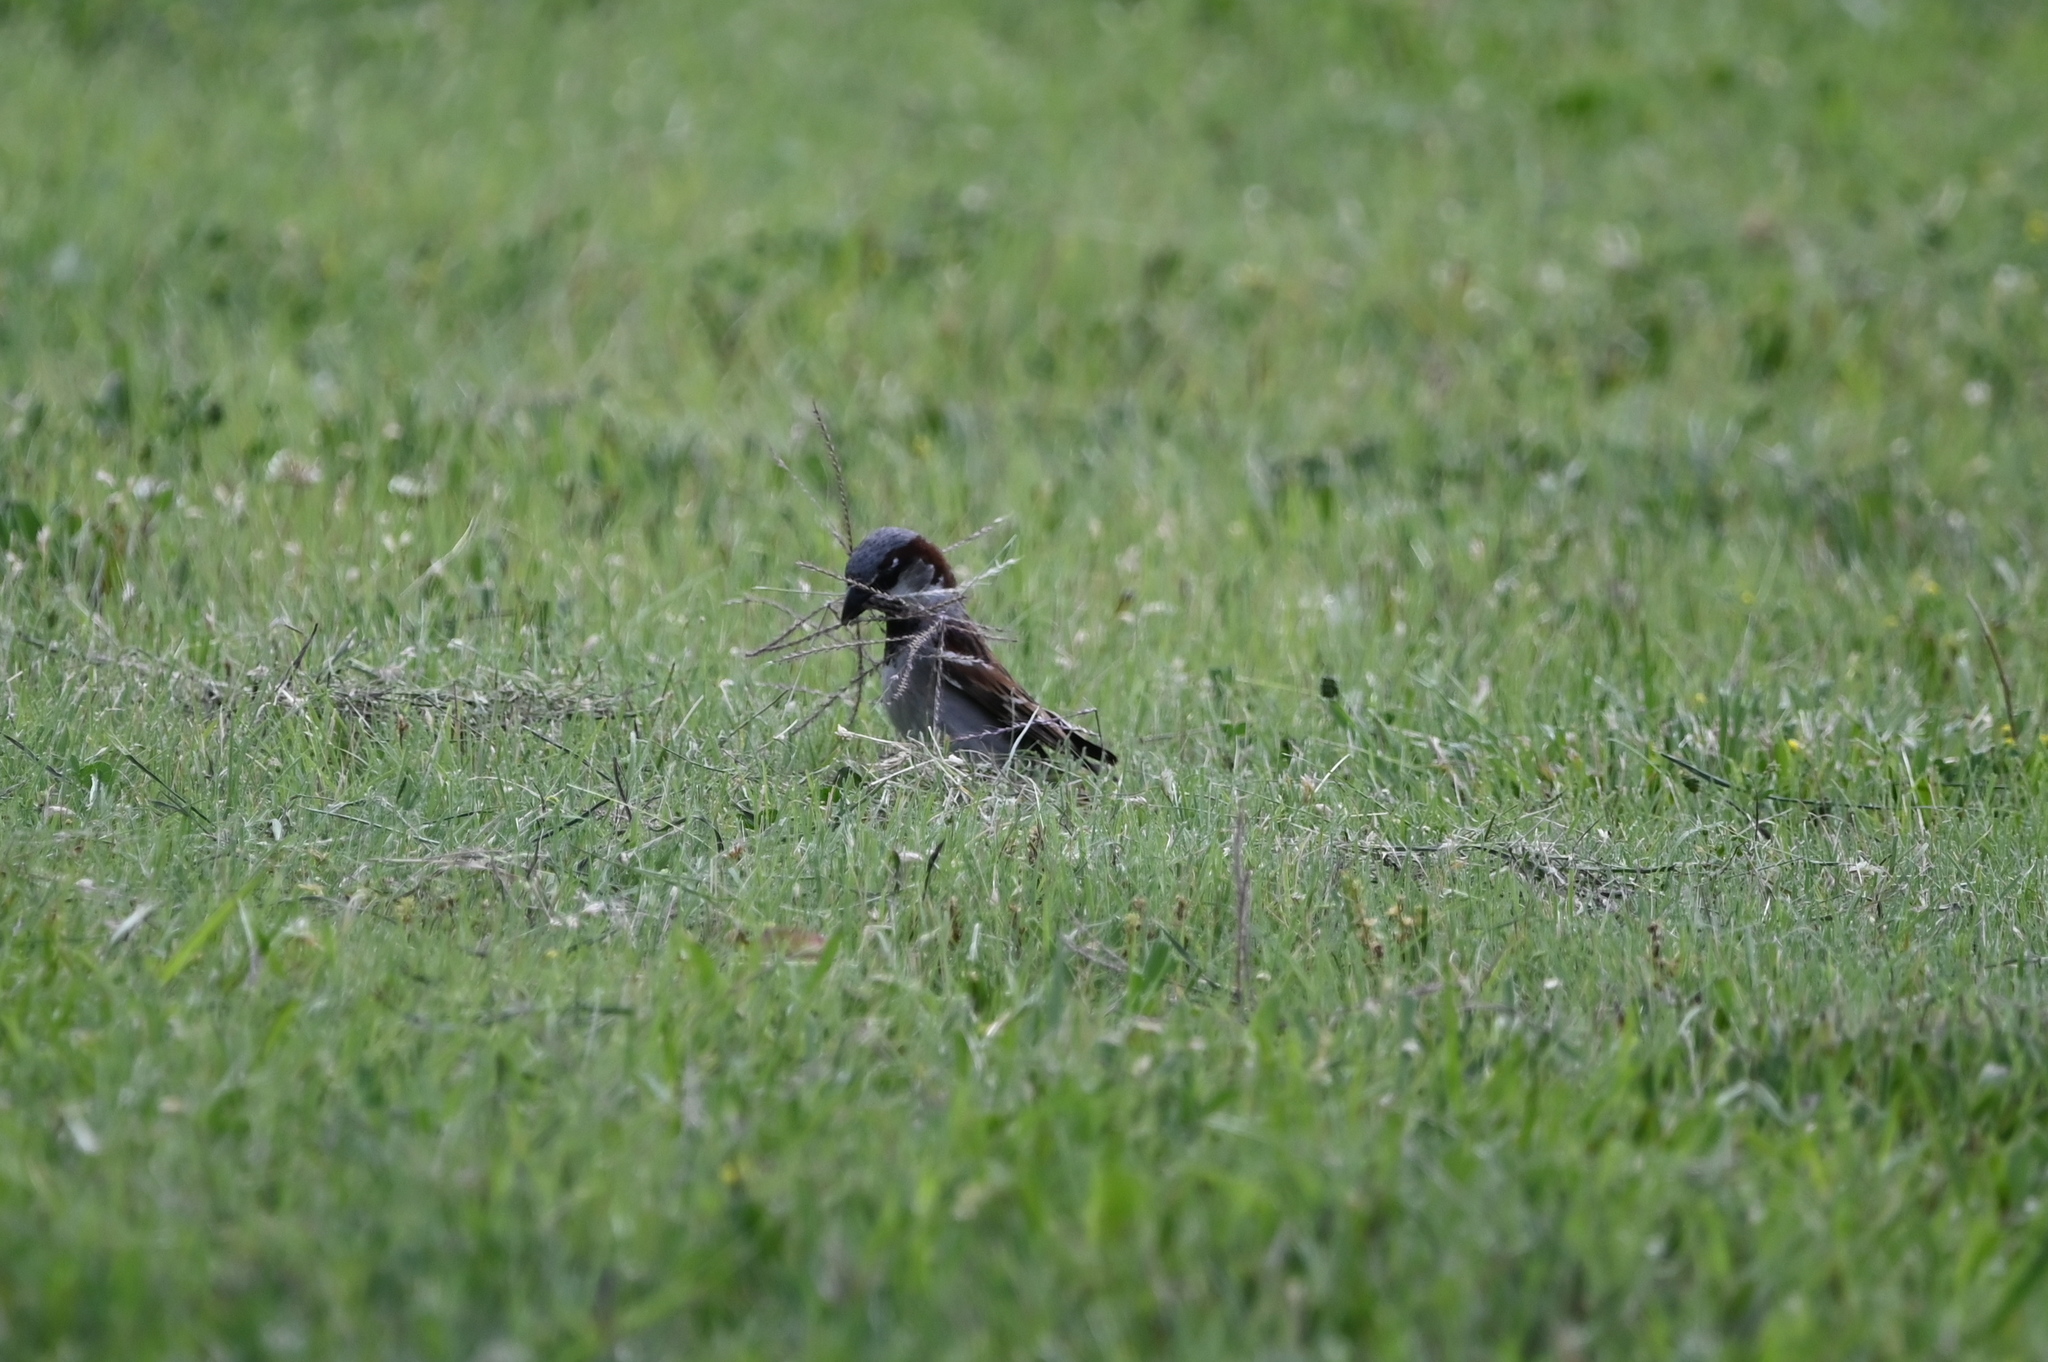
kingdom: Animalia
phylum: Chordata
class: Aves
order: Passeriformes
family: Passeridae
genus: Passer
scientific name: Passer domesticus
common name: House sparrow
